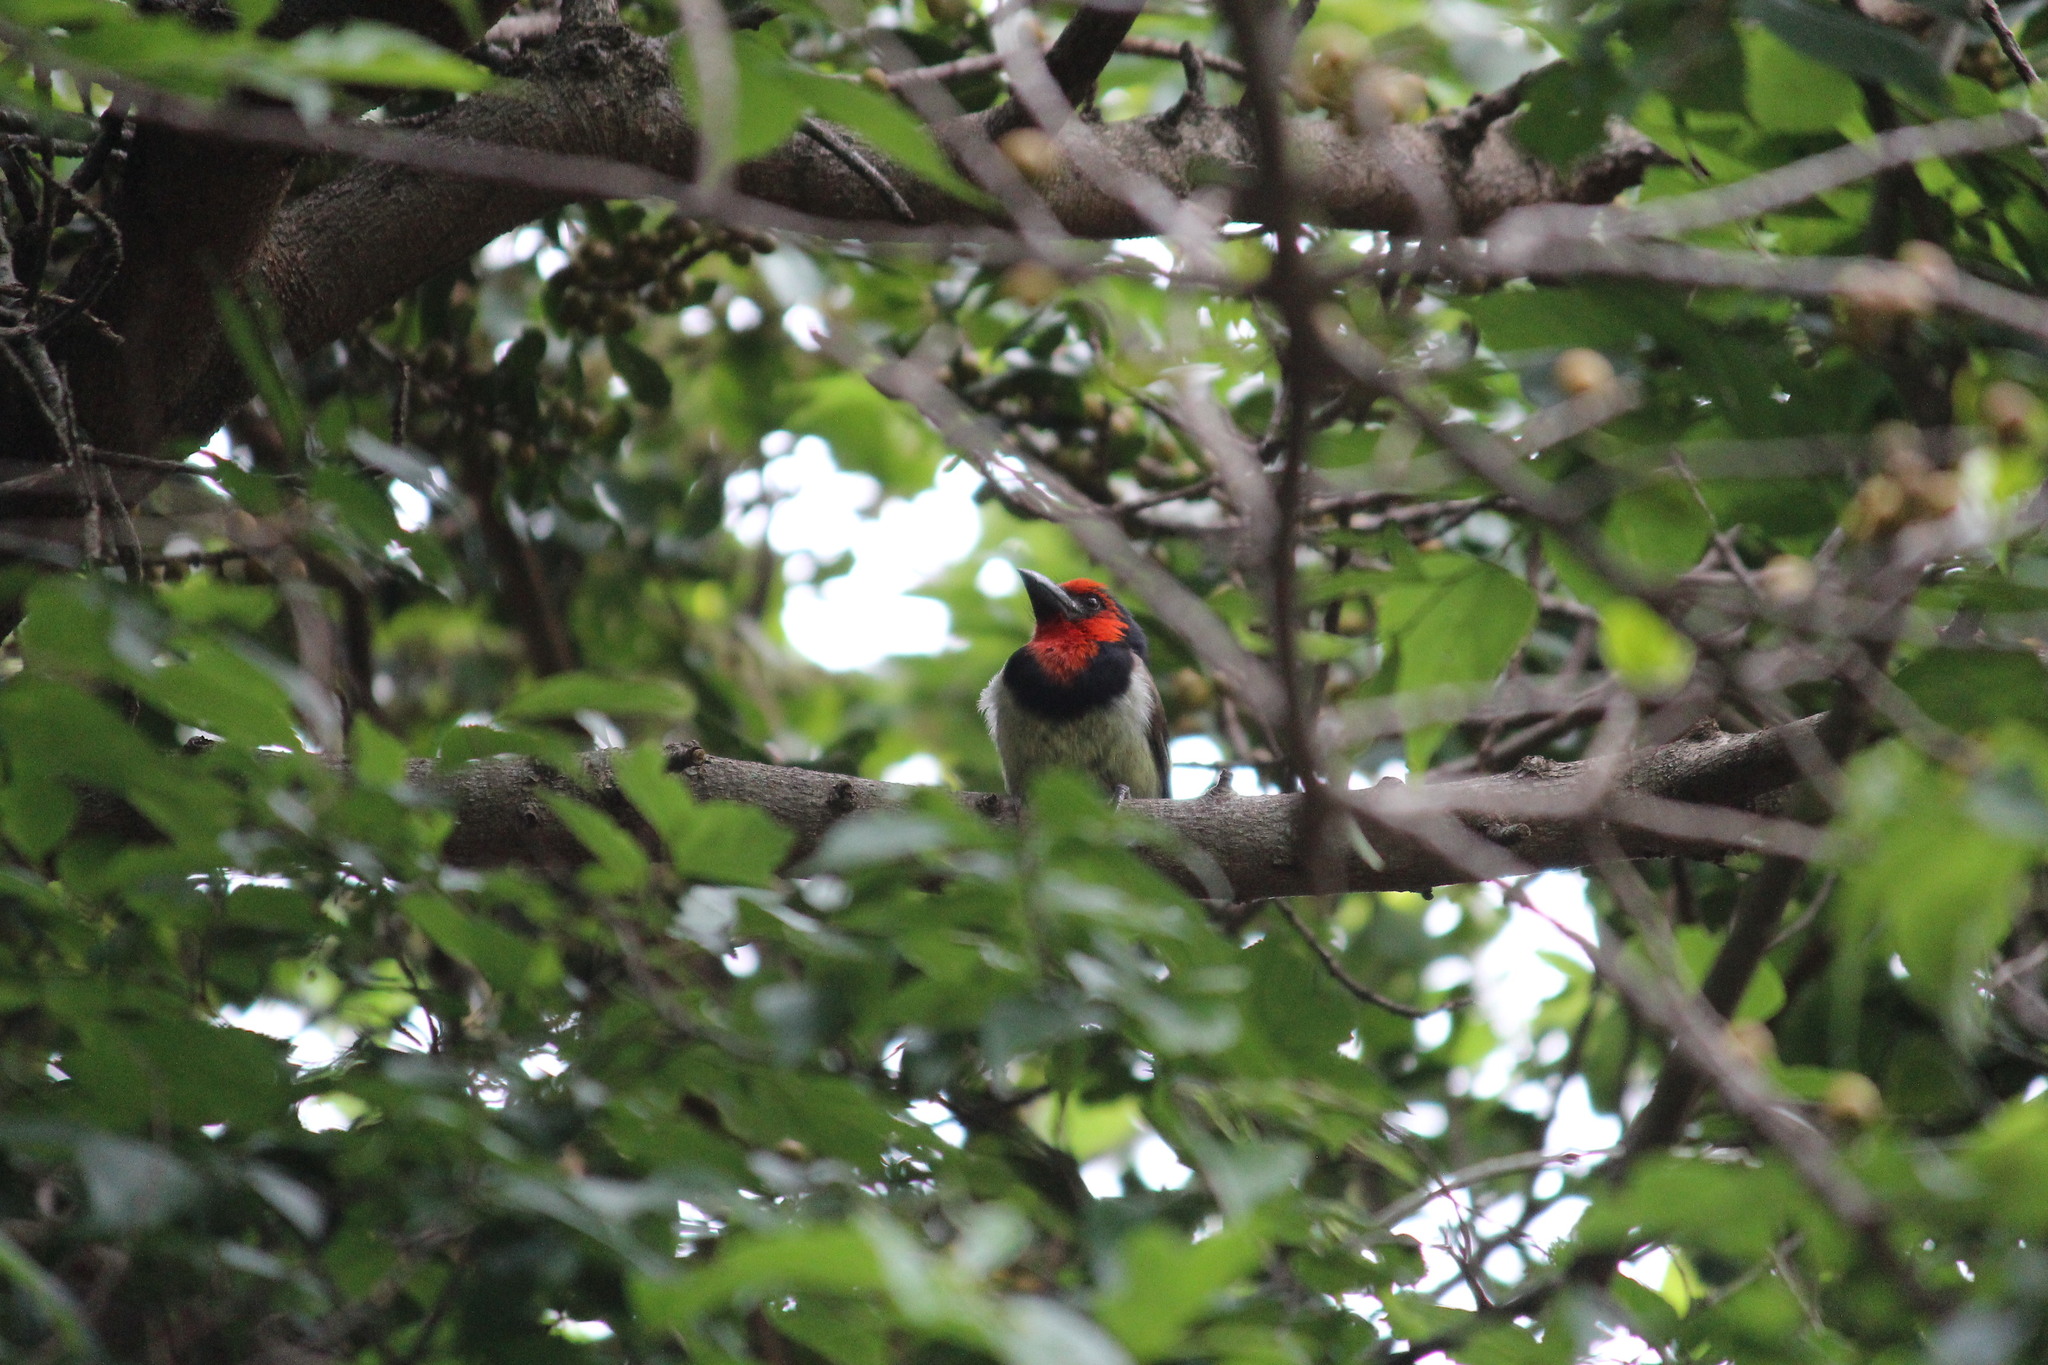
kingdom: Animalia
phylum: Chordata
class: Aves
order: Piciformes
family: Lybiidae
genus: Lybius
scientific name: Lybius torquatus
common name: Black-collared barbet
